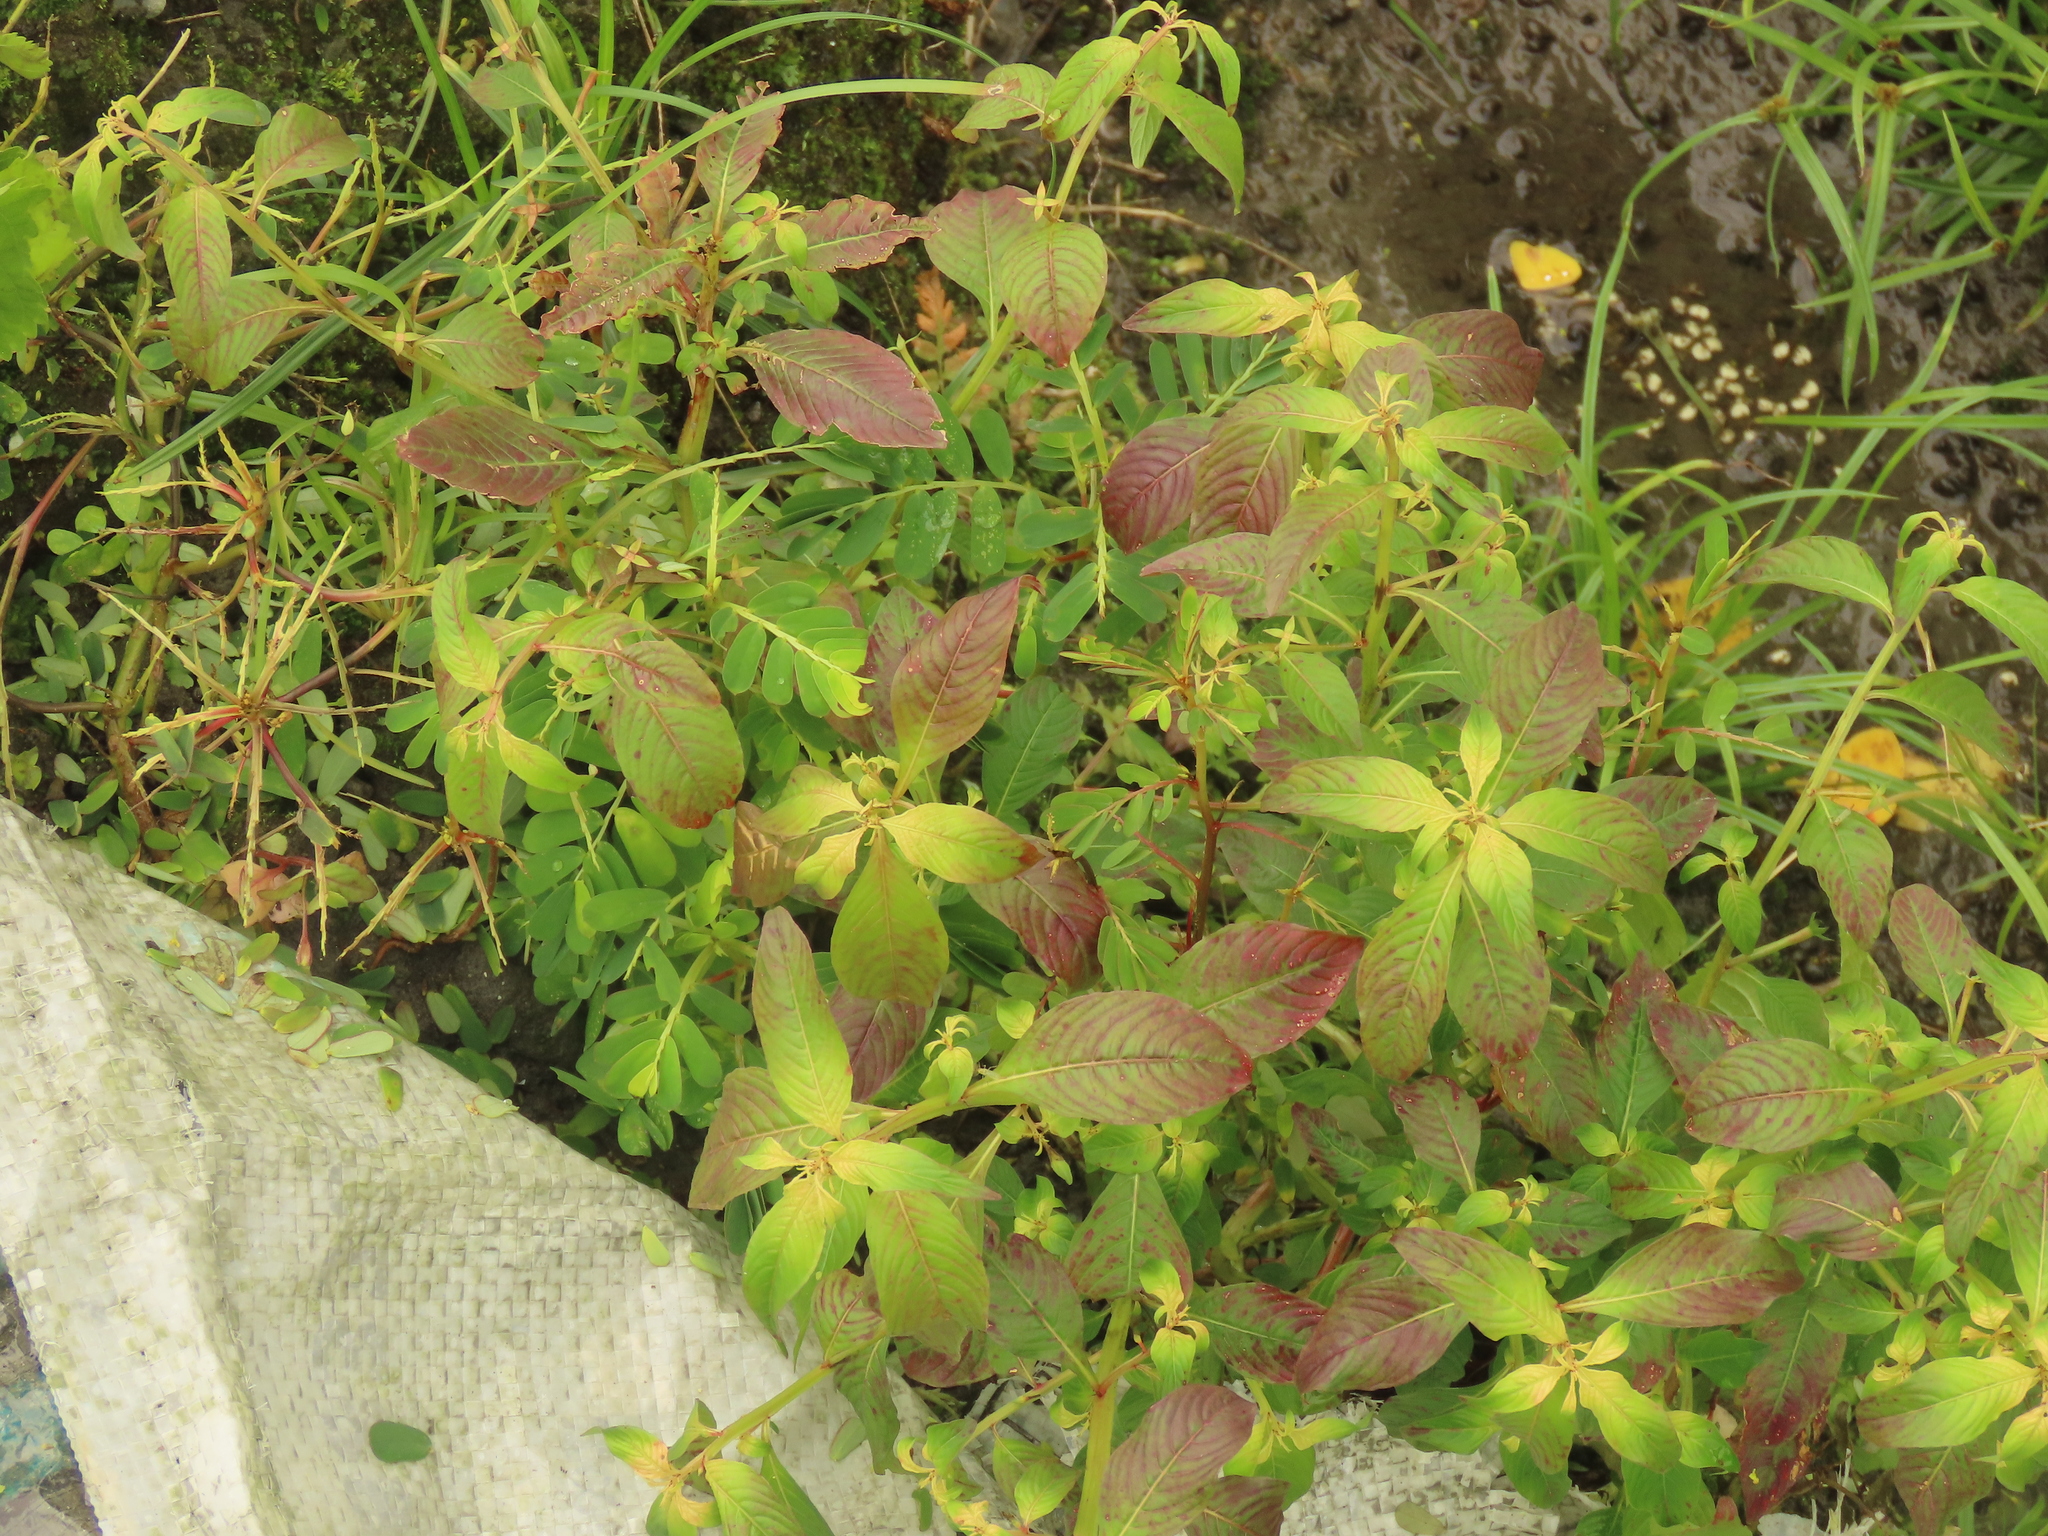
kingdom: Plantae
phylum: Tracheophyta
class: Magnoliopsida
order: Myrtales
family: Onagraceae
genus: Ludwigia
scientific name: Ludwigia hyssopifolia
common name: Linear leaf water primrose
